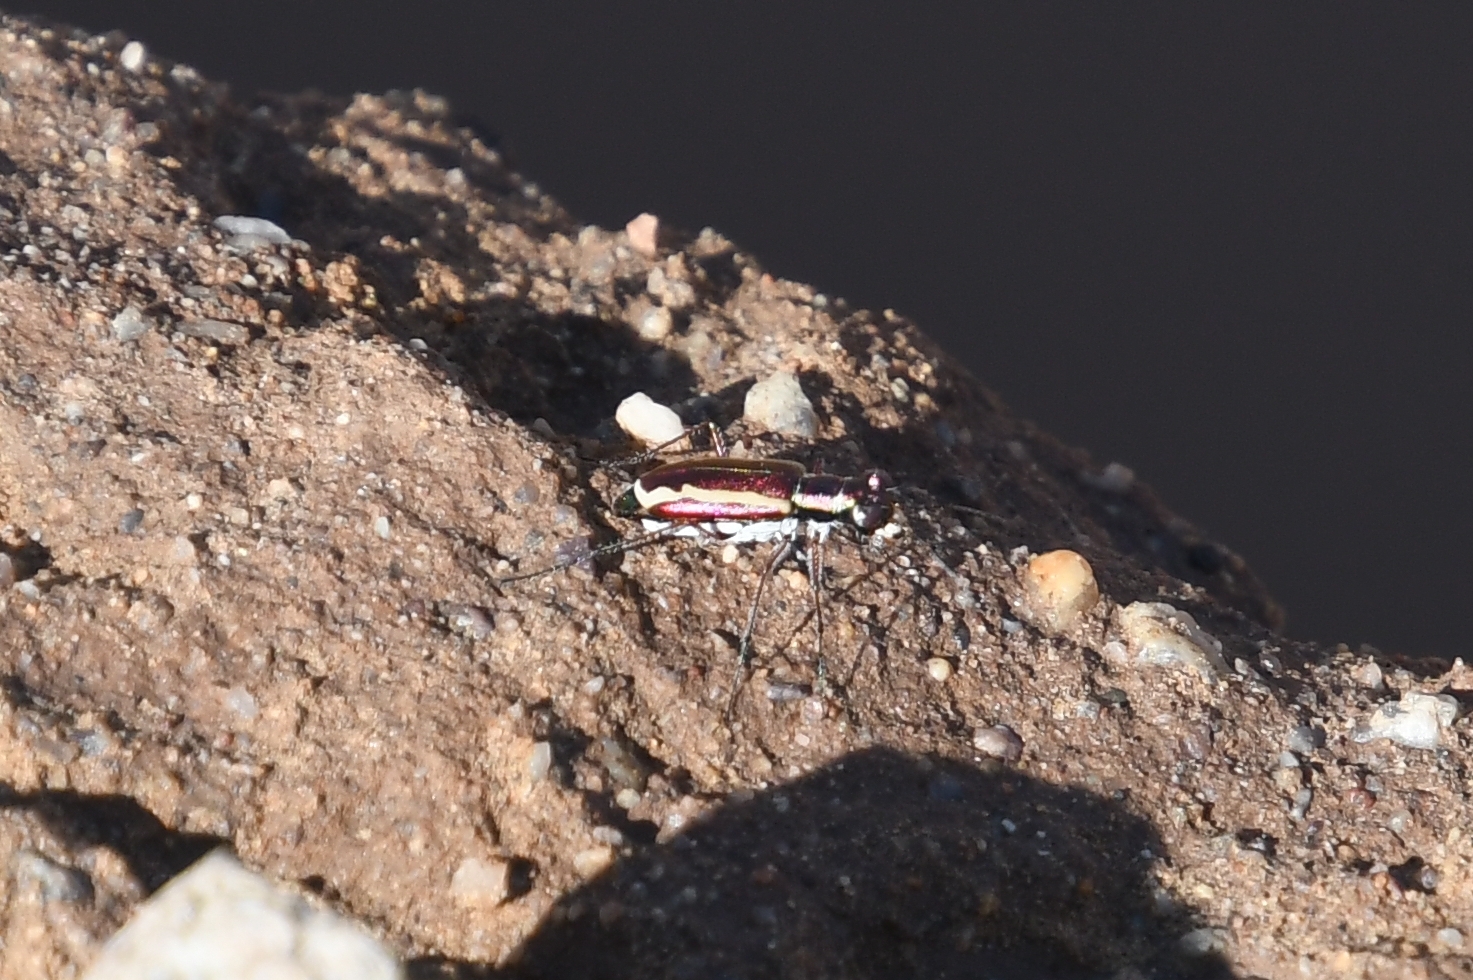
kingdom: Animalia
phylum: Arthropoda
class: Insecta
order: Coleoptera
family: Carabidae
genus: Cylindera
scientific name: Cylindera lemniscata
